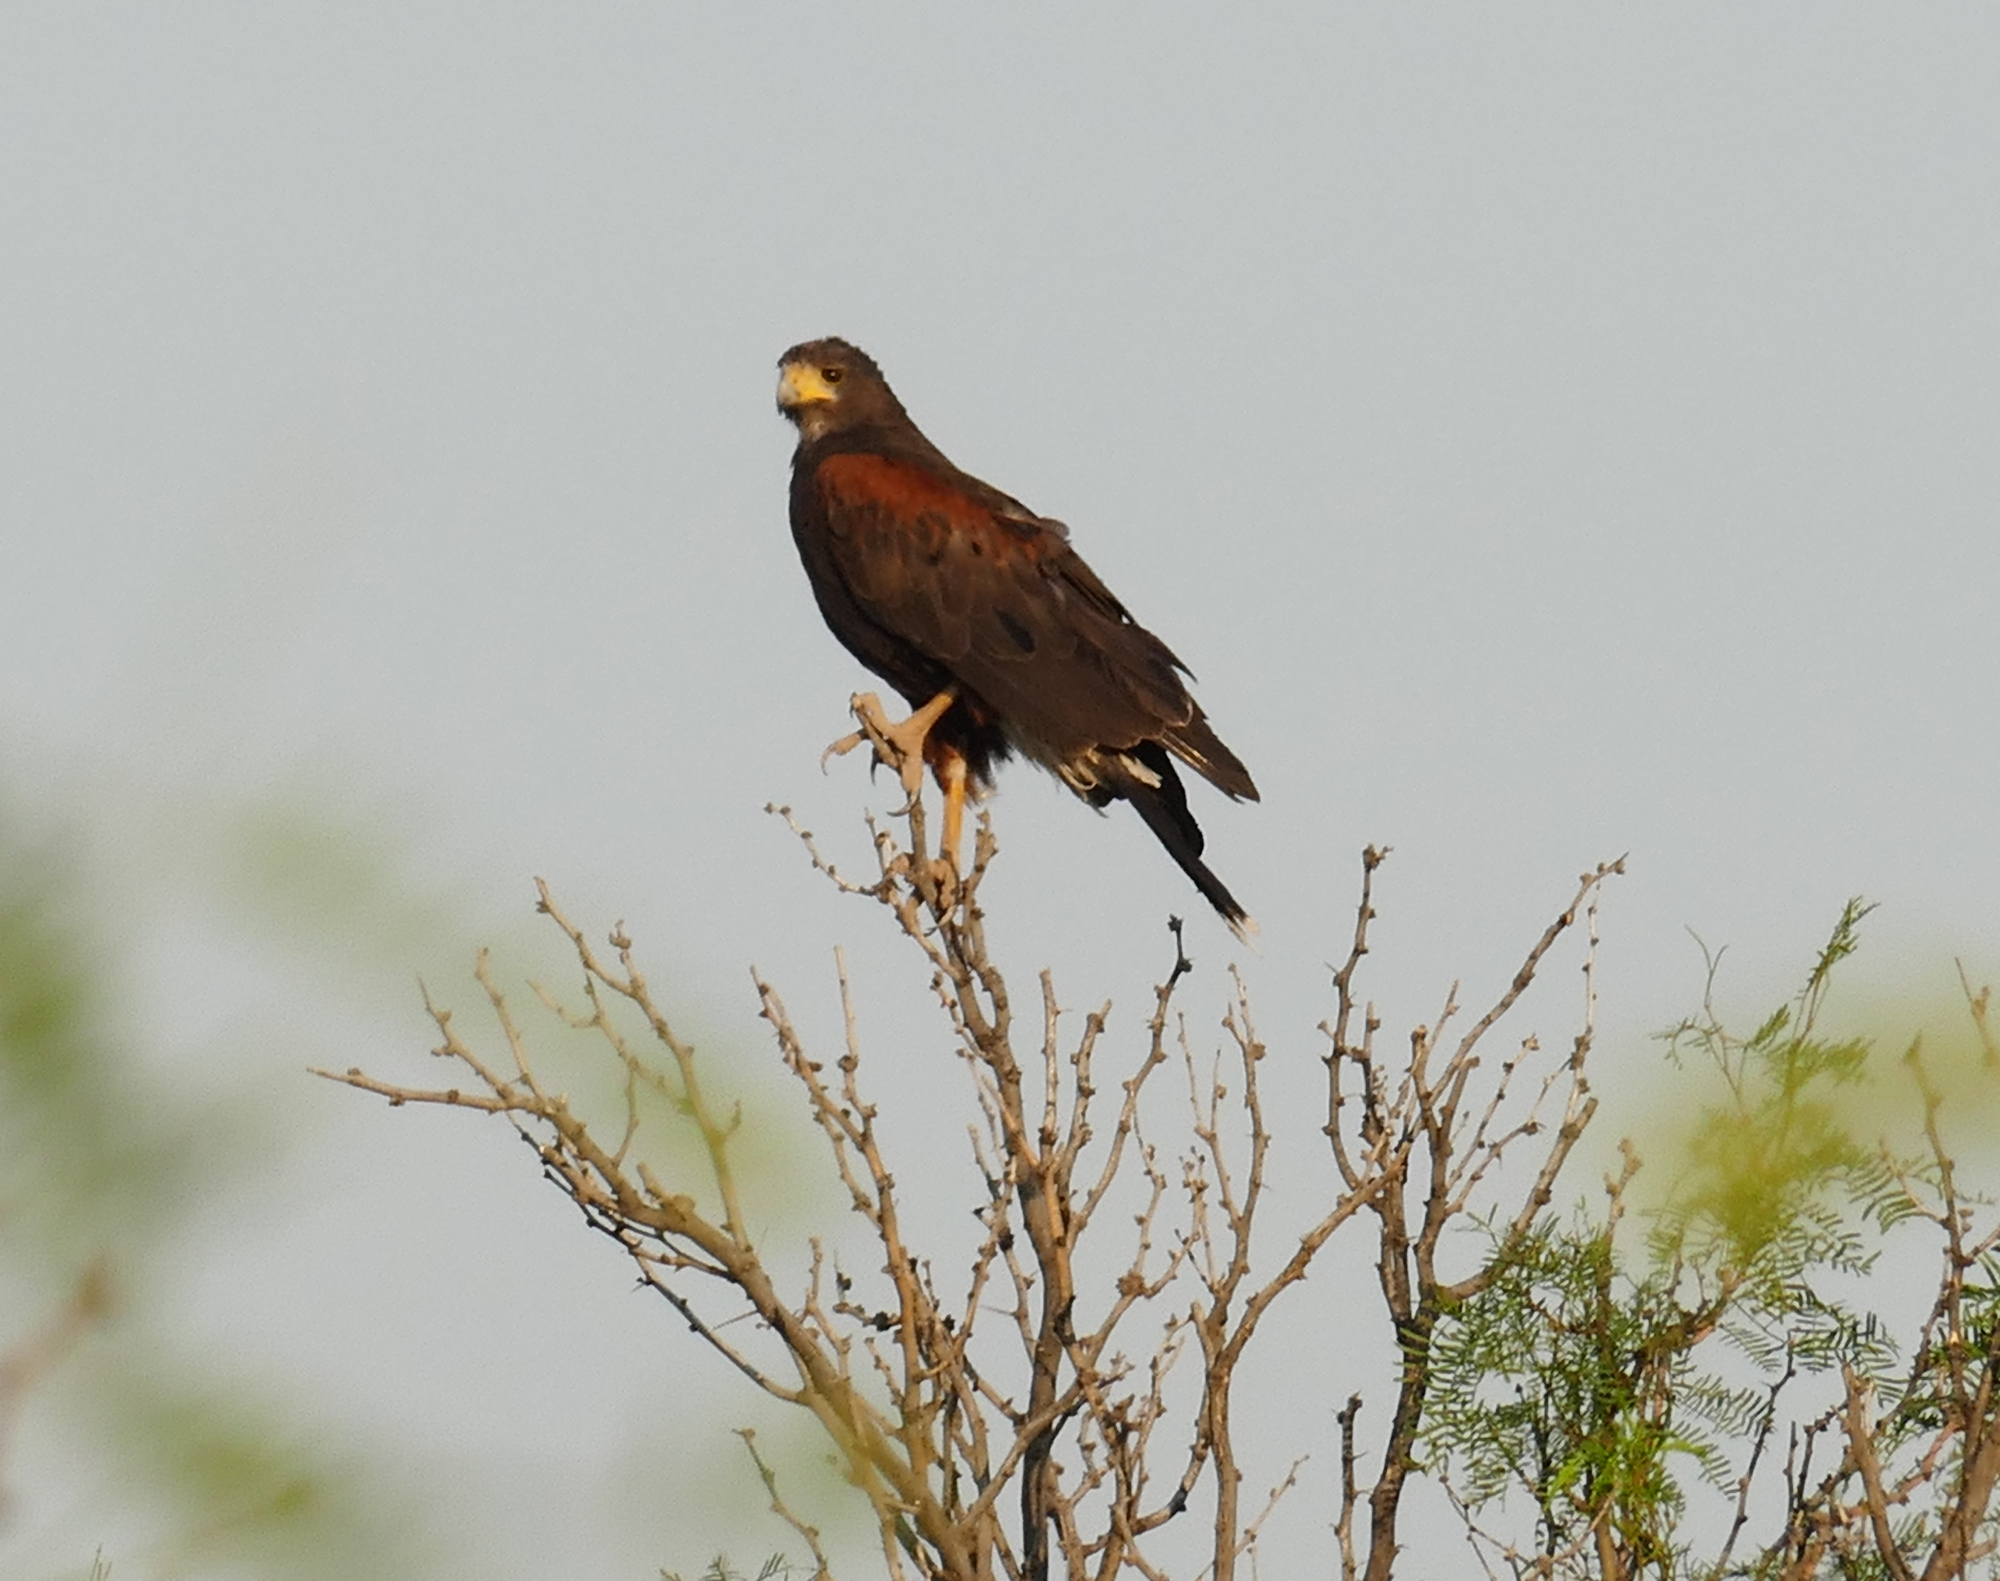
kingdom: Animalia
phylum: Chordata
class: Aves
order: Accipitriformes
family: Accipitridae
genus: Parabuteo
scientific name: Parabuteo unicinctus
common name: Harris's hawk
